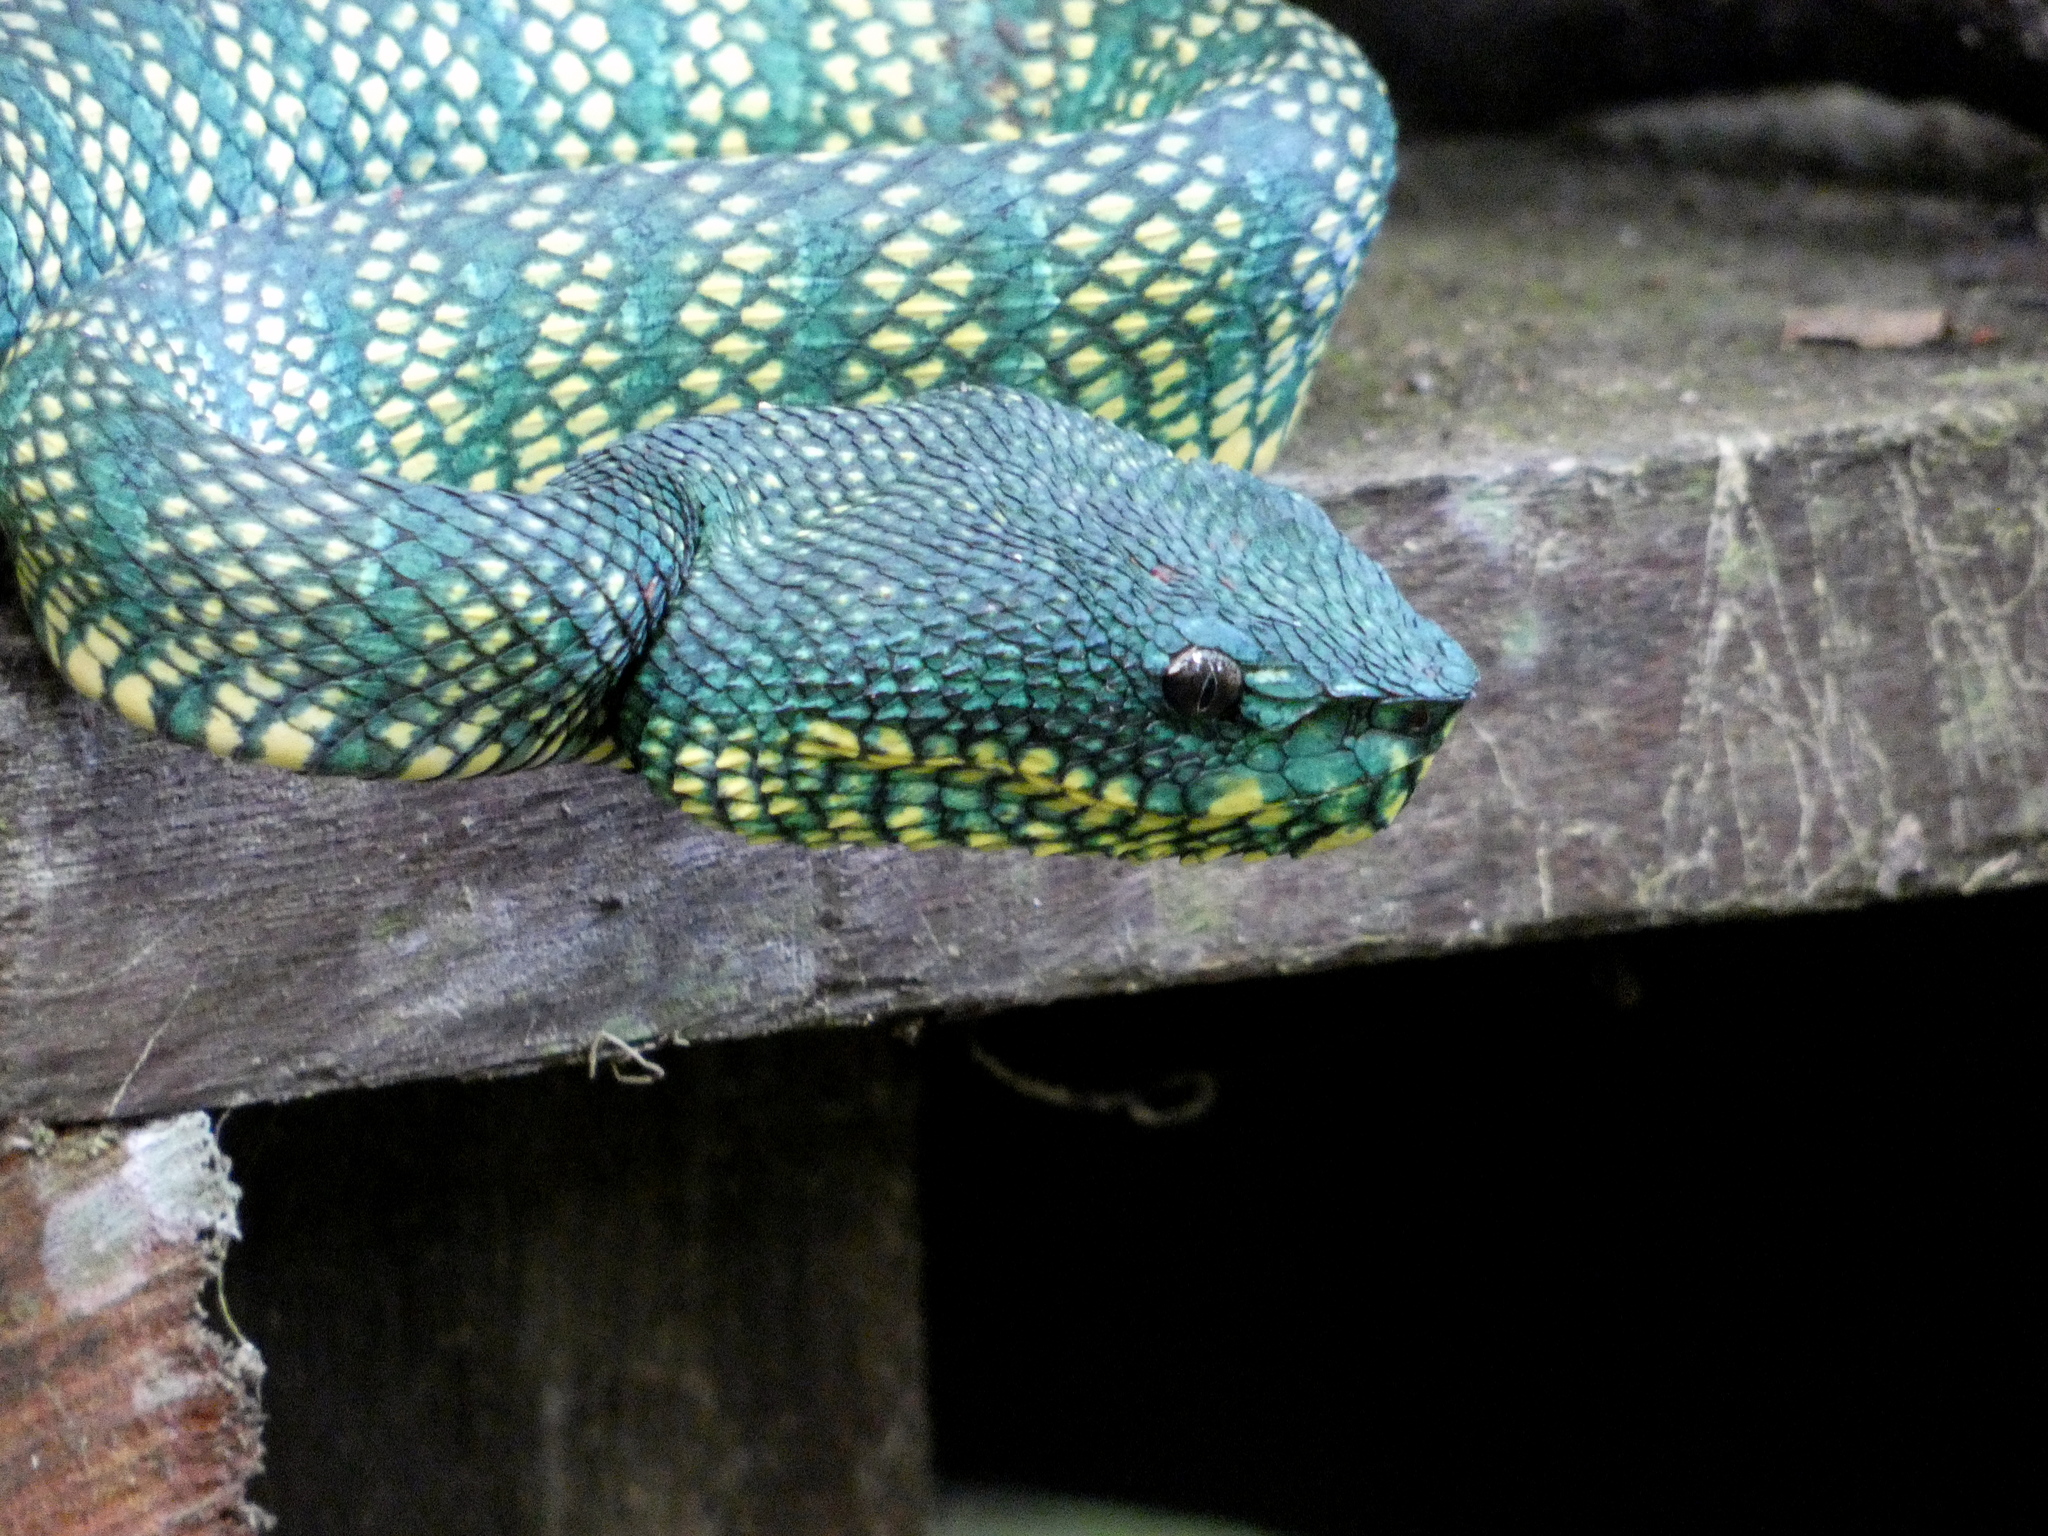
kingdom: Animalia
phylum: Chordata
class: Squamata
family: Viperidae
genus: Tropidolaemus
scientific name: Tropidolaemus subannulatus
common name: North philippine temple pitviper
